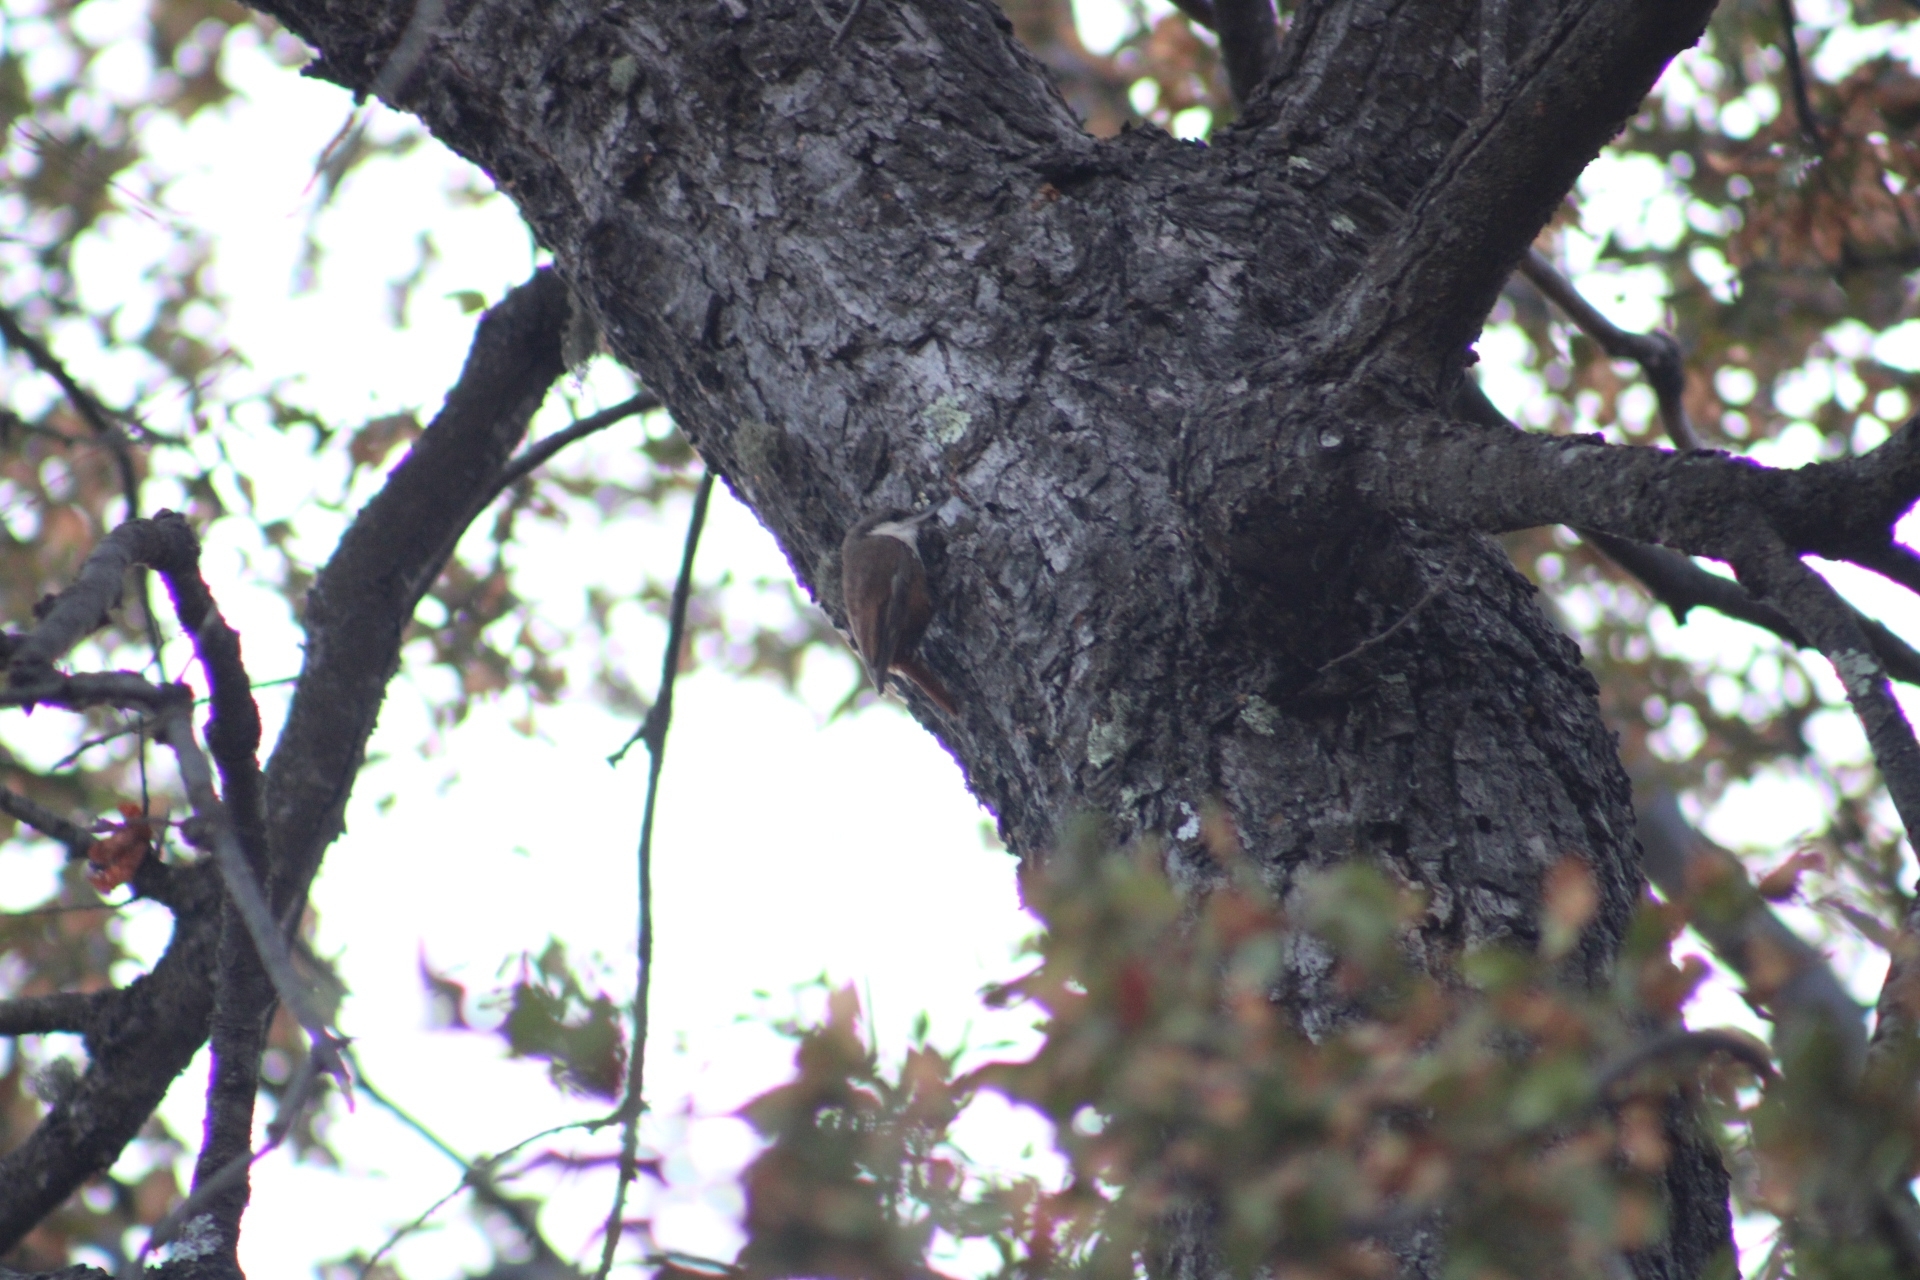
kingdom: Animalia
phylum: Chordata
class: Aves
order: Passeriformes
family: Furnariidae
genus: Pygarrhichas
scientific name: Pygarrhichas albogularis
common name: White-throated treerunner
